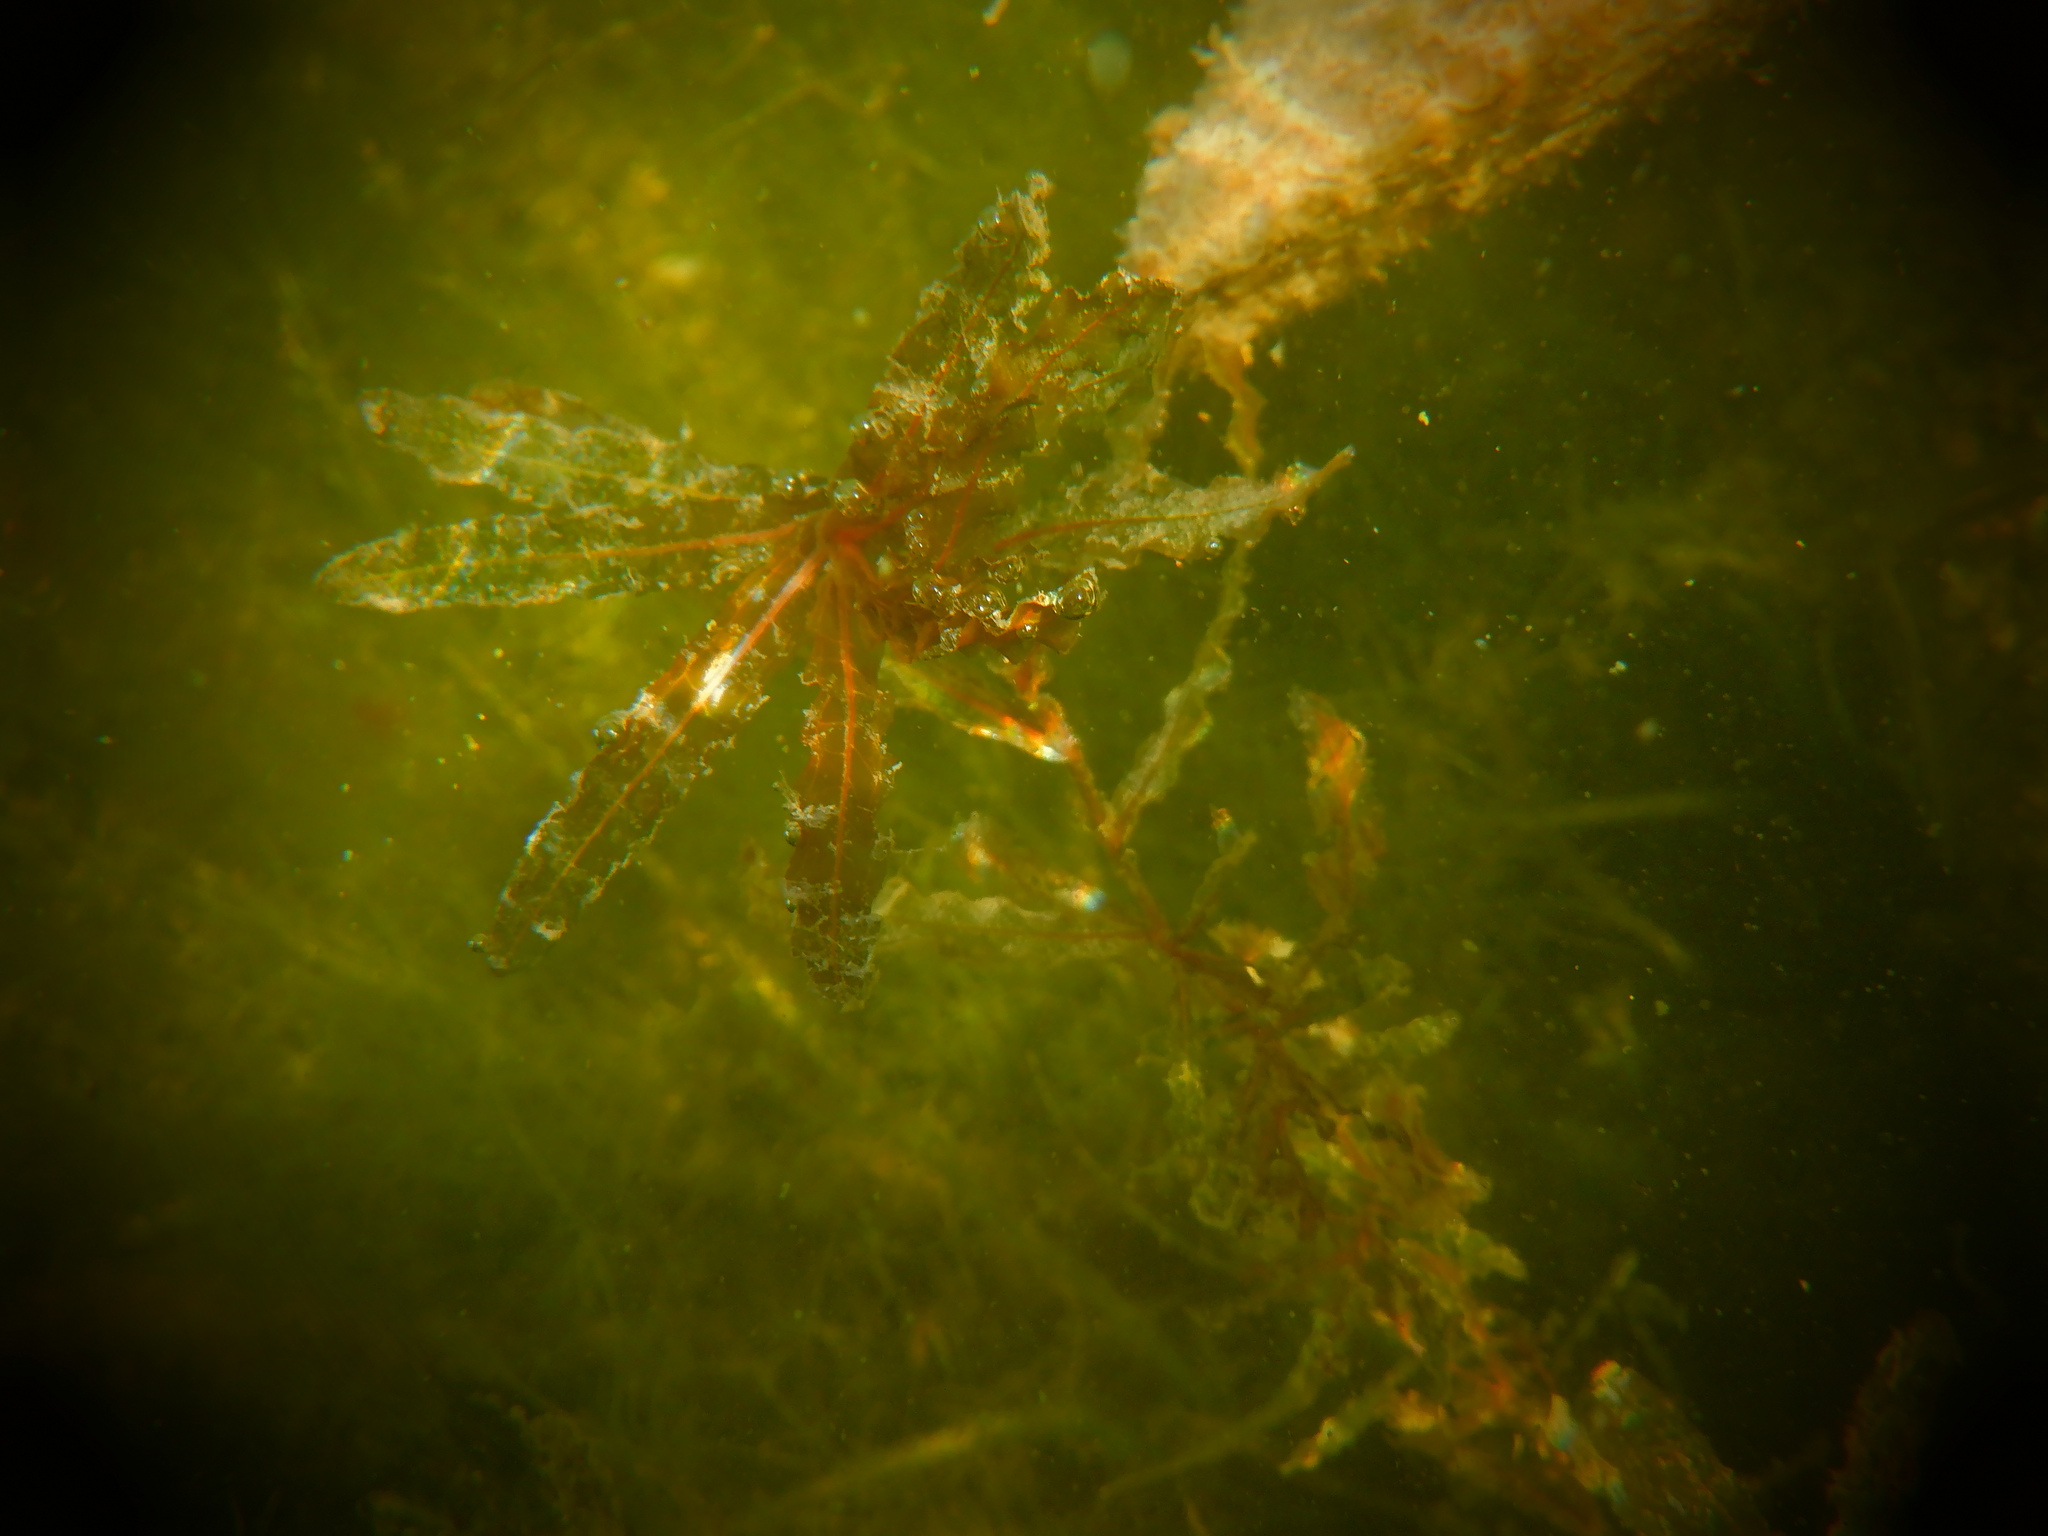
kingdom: Plantae
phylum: Tracheophyta
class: Liliopsida
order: Alismatales
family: Potamogetonaceae
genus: Potamogeton
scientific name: Potamogeton crispus
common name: Curled pondweed
